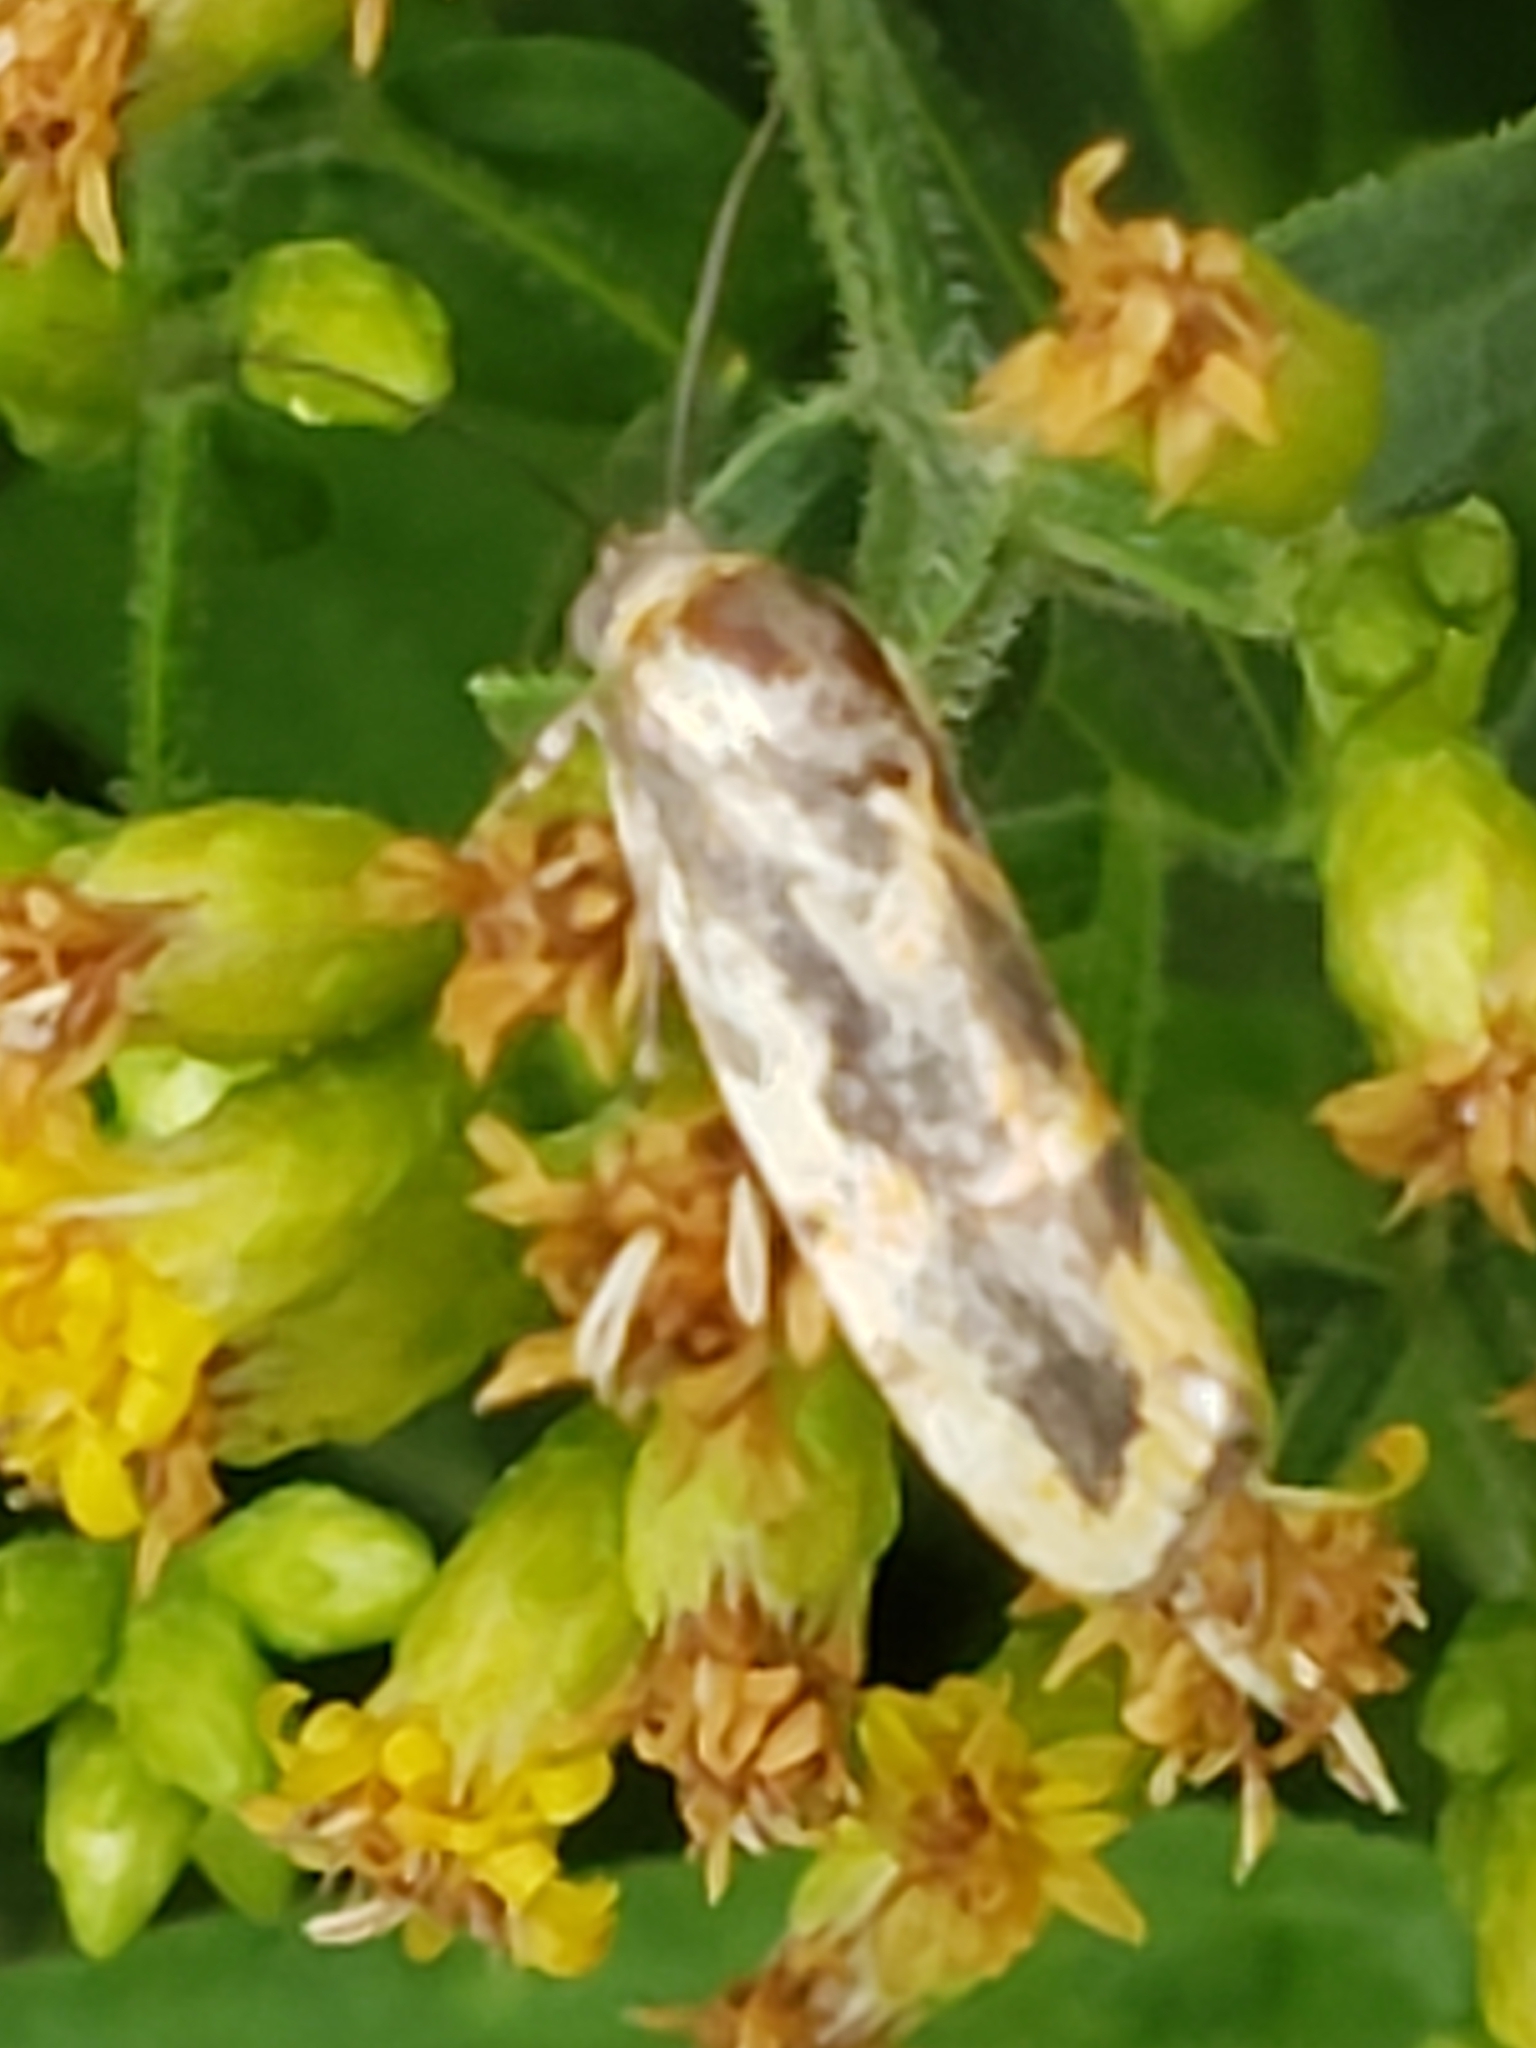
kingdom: Animalia
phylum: Arthropoda
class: Insecta
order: Lepidoptera
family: Noctuidae
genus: Acontia
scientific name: Acontia leo
